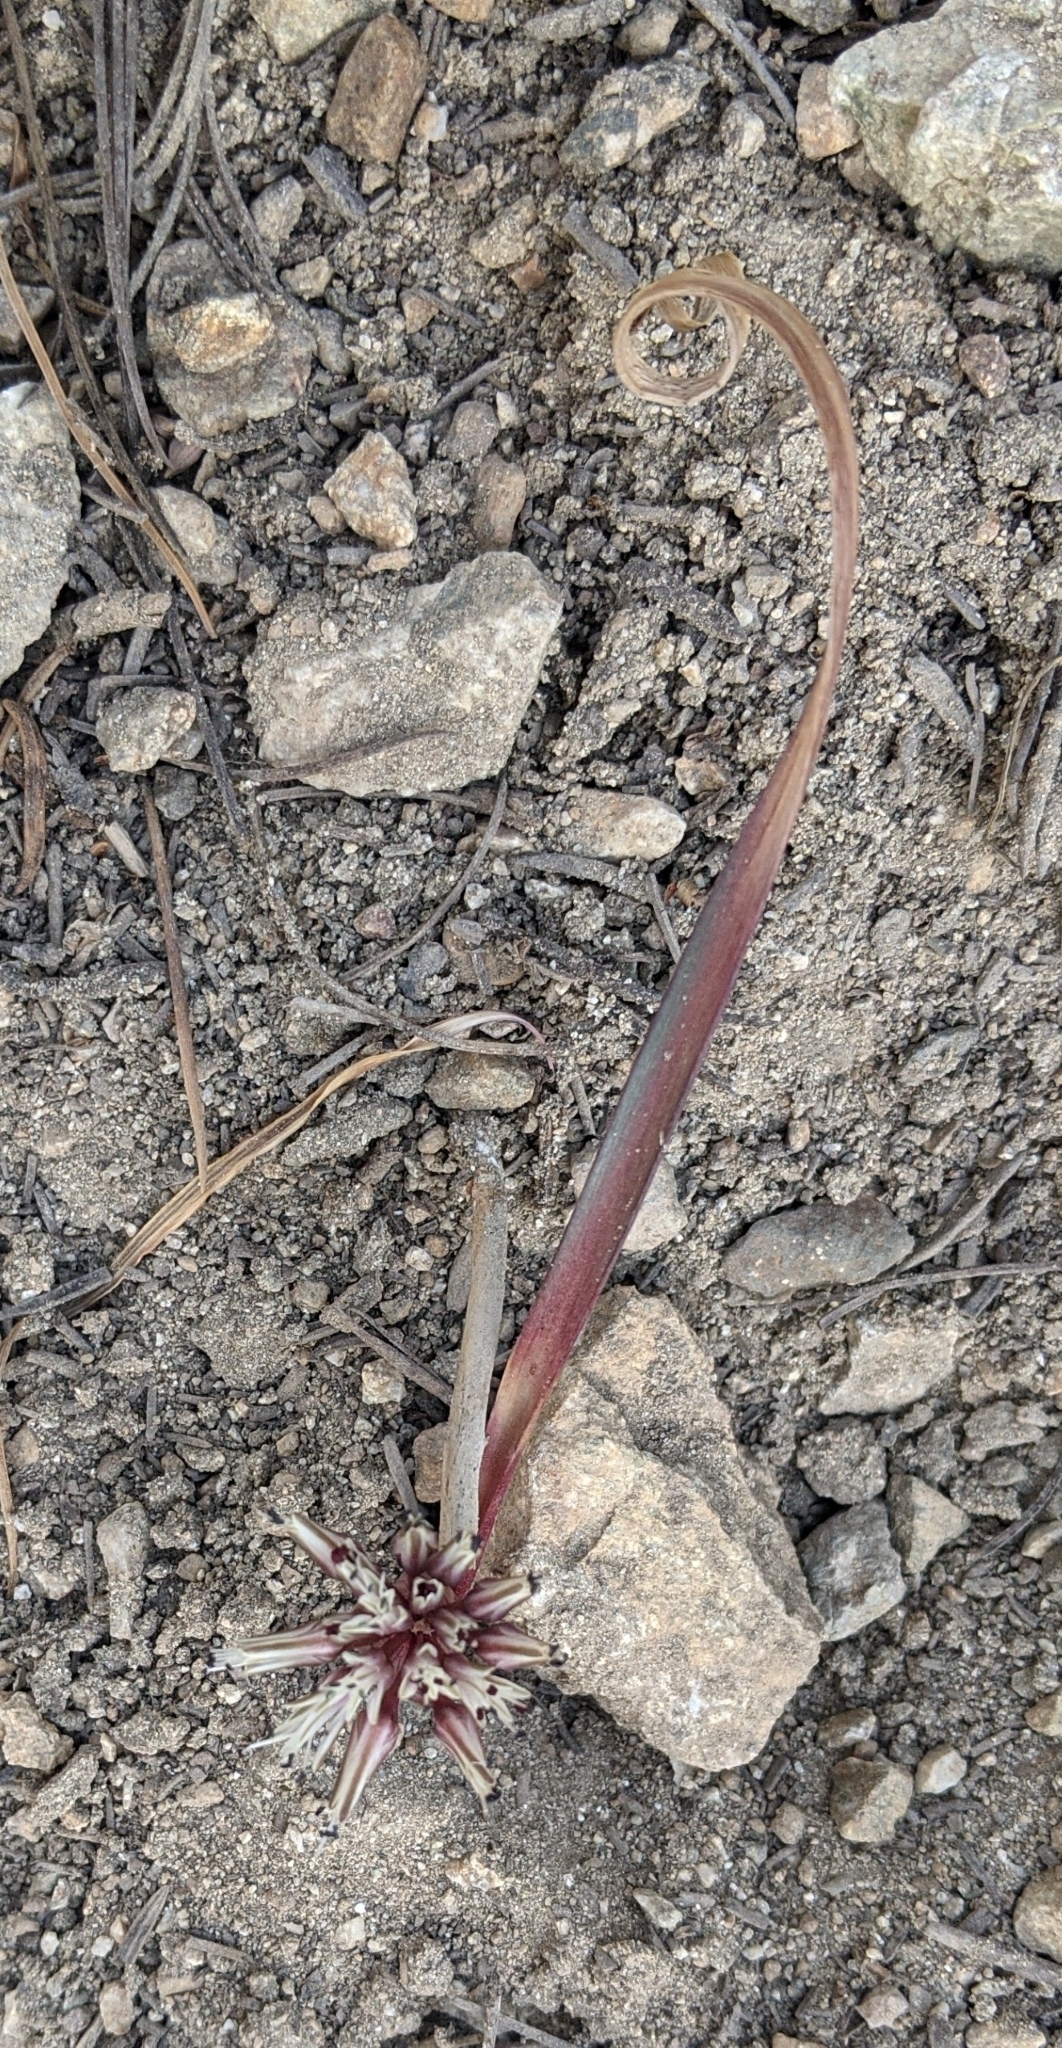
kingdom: Plantae
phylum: Tracheophyta
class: Liliopsida
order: Asparagales
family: Amaryllidaceae
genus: Allium
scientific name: Allium burlewii
